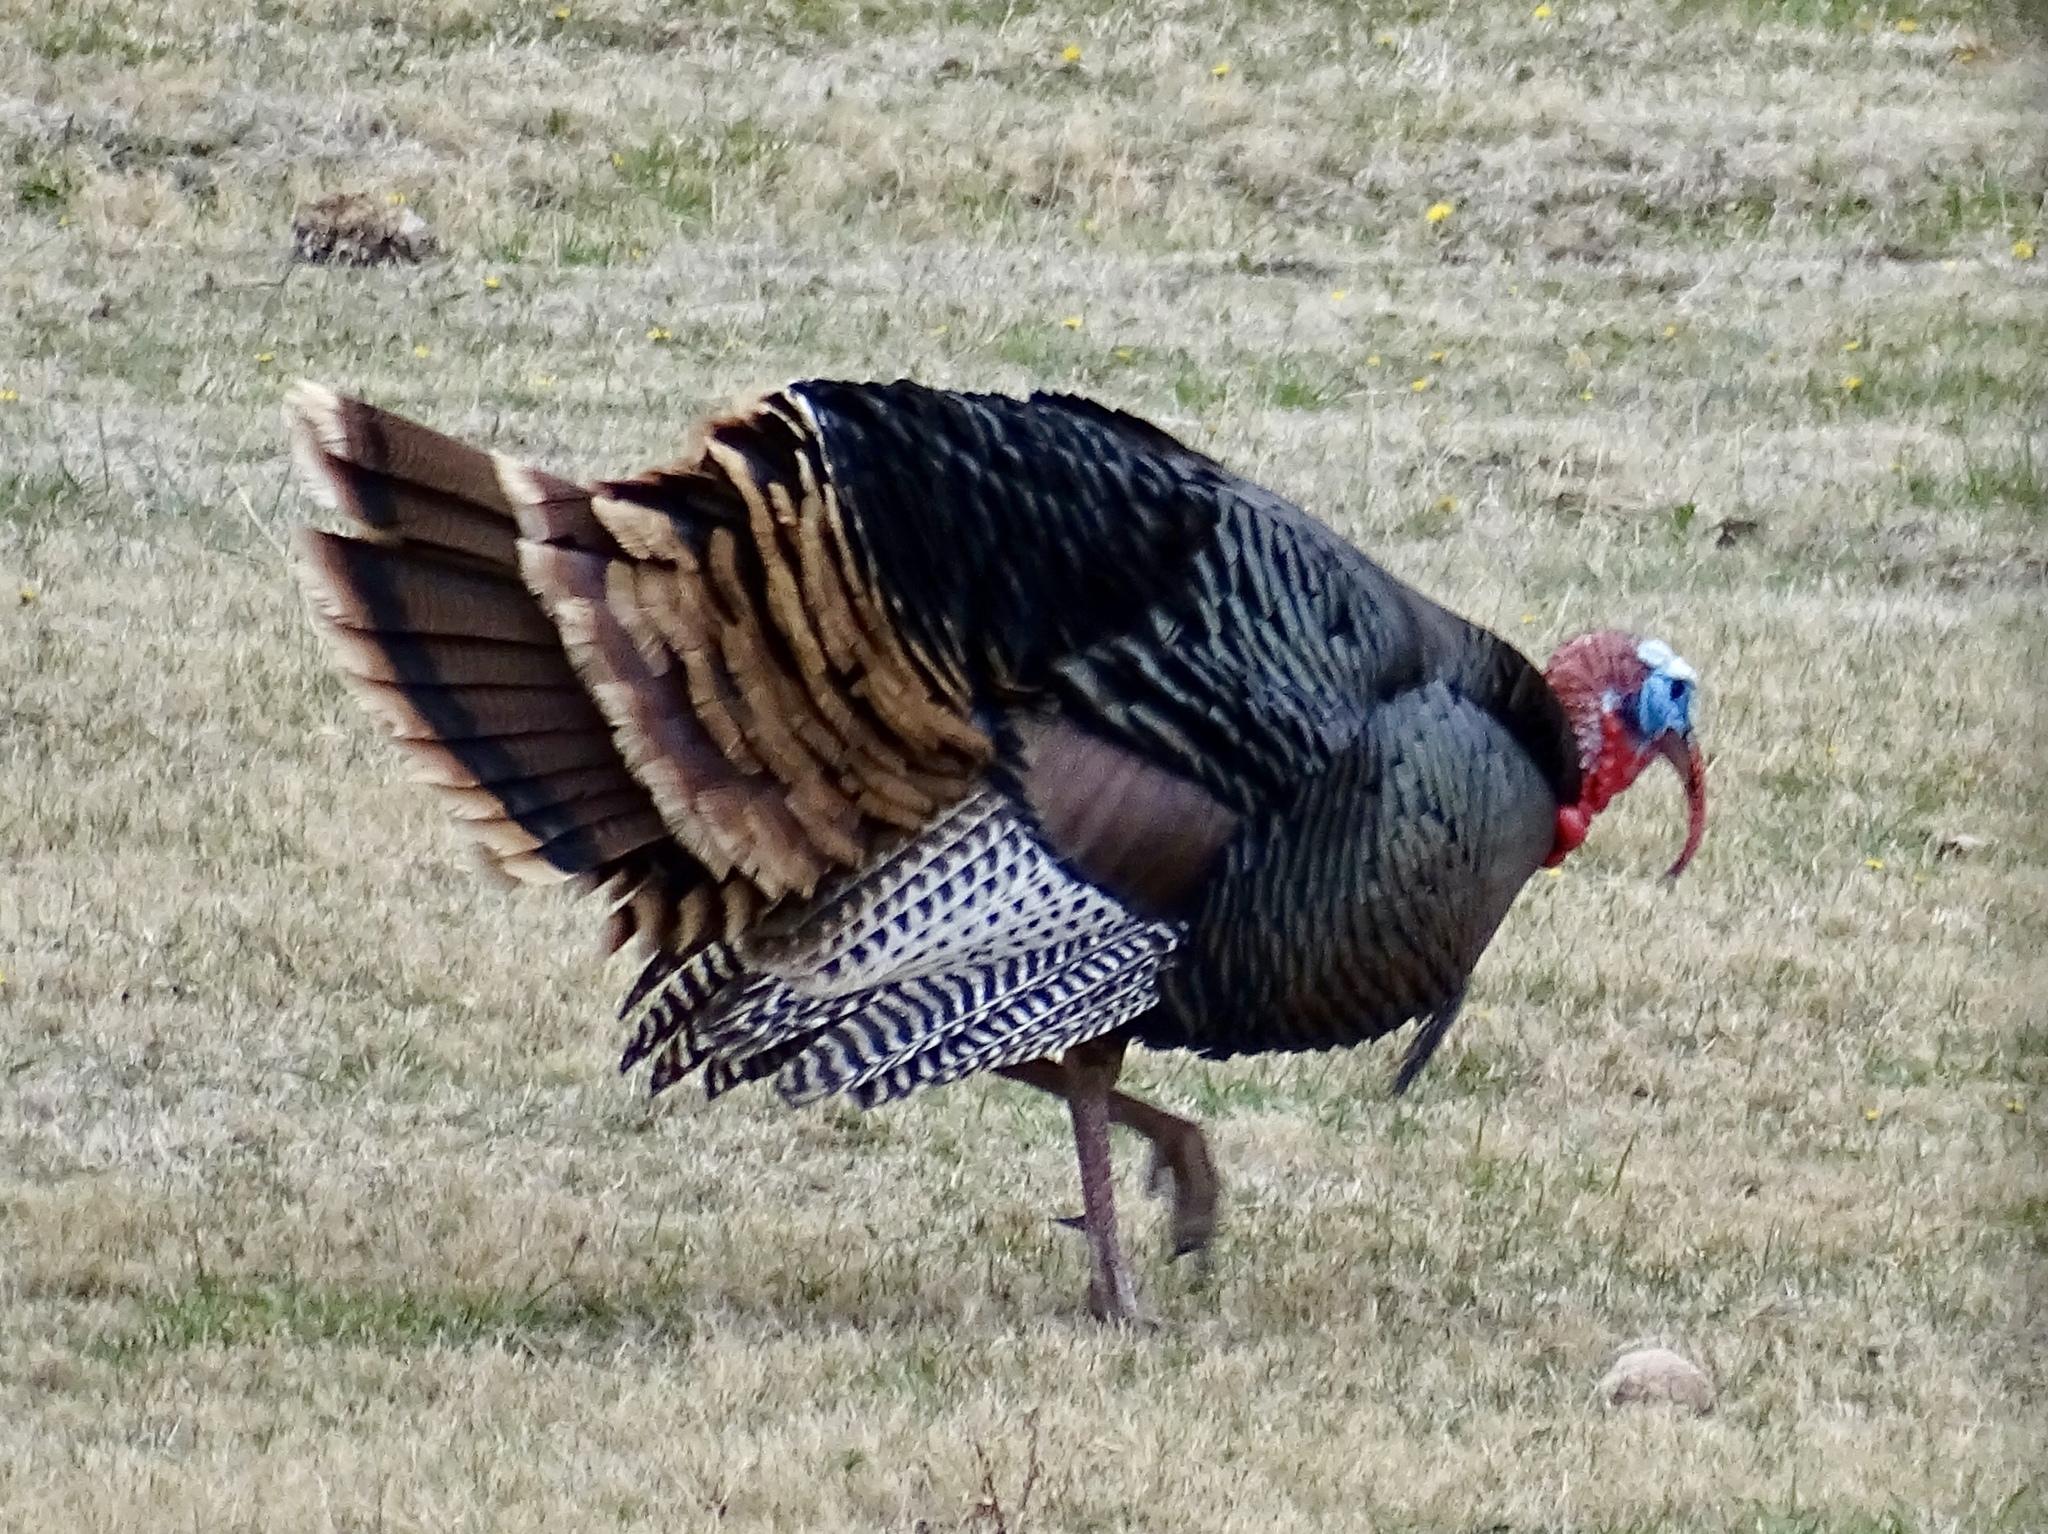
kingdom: Animalia
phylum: Chordata
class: Aves
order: Galliformes
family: Phasianidae
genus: Meleagris
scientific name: Meleagris gallopavo
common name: Wild turkey
